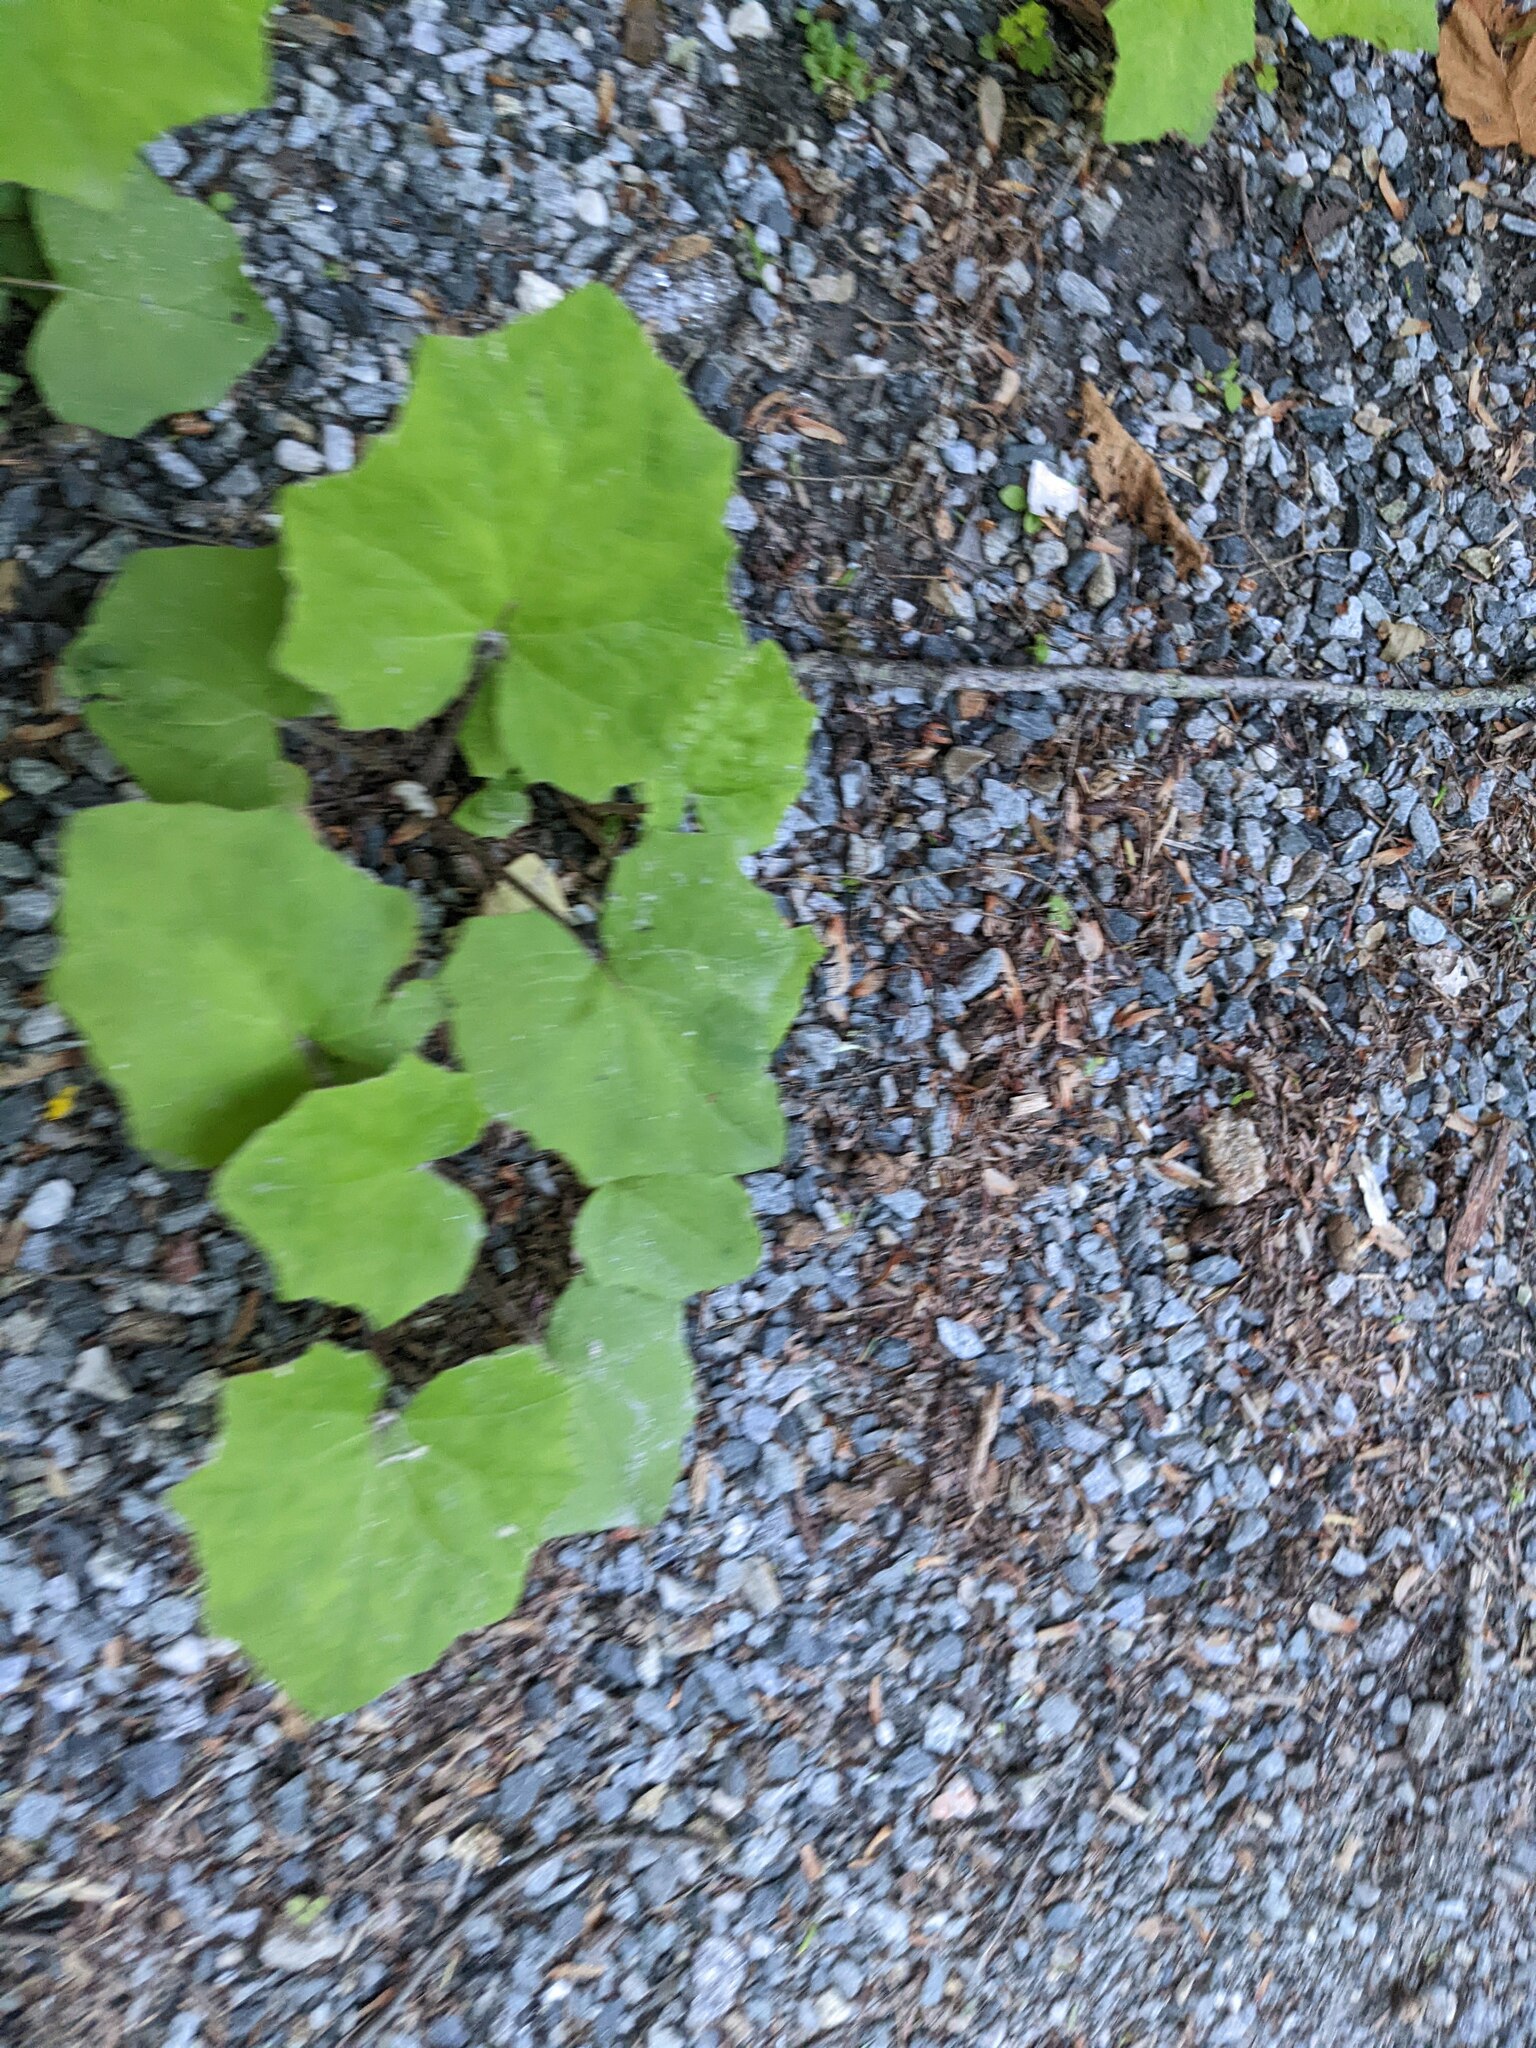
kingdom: Plantae
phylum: Tracheophyta
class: Magnoliopsida
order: Asterales
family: Asteraceae
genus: Tussilago
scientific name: Tussilago farfara
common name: Coltsfoot
